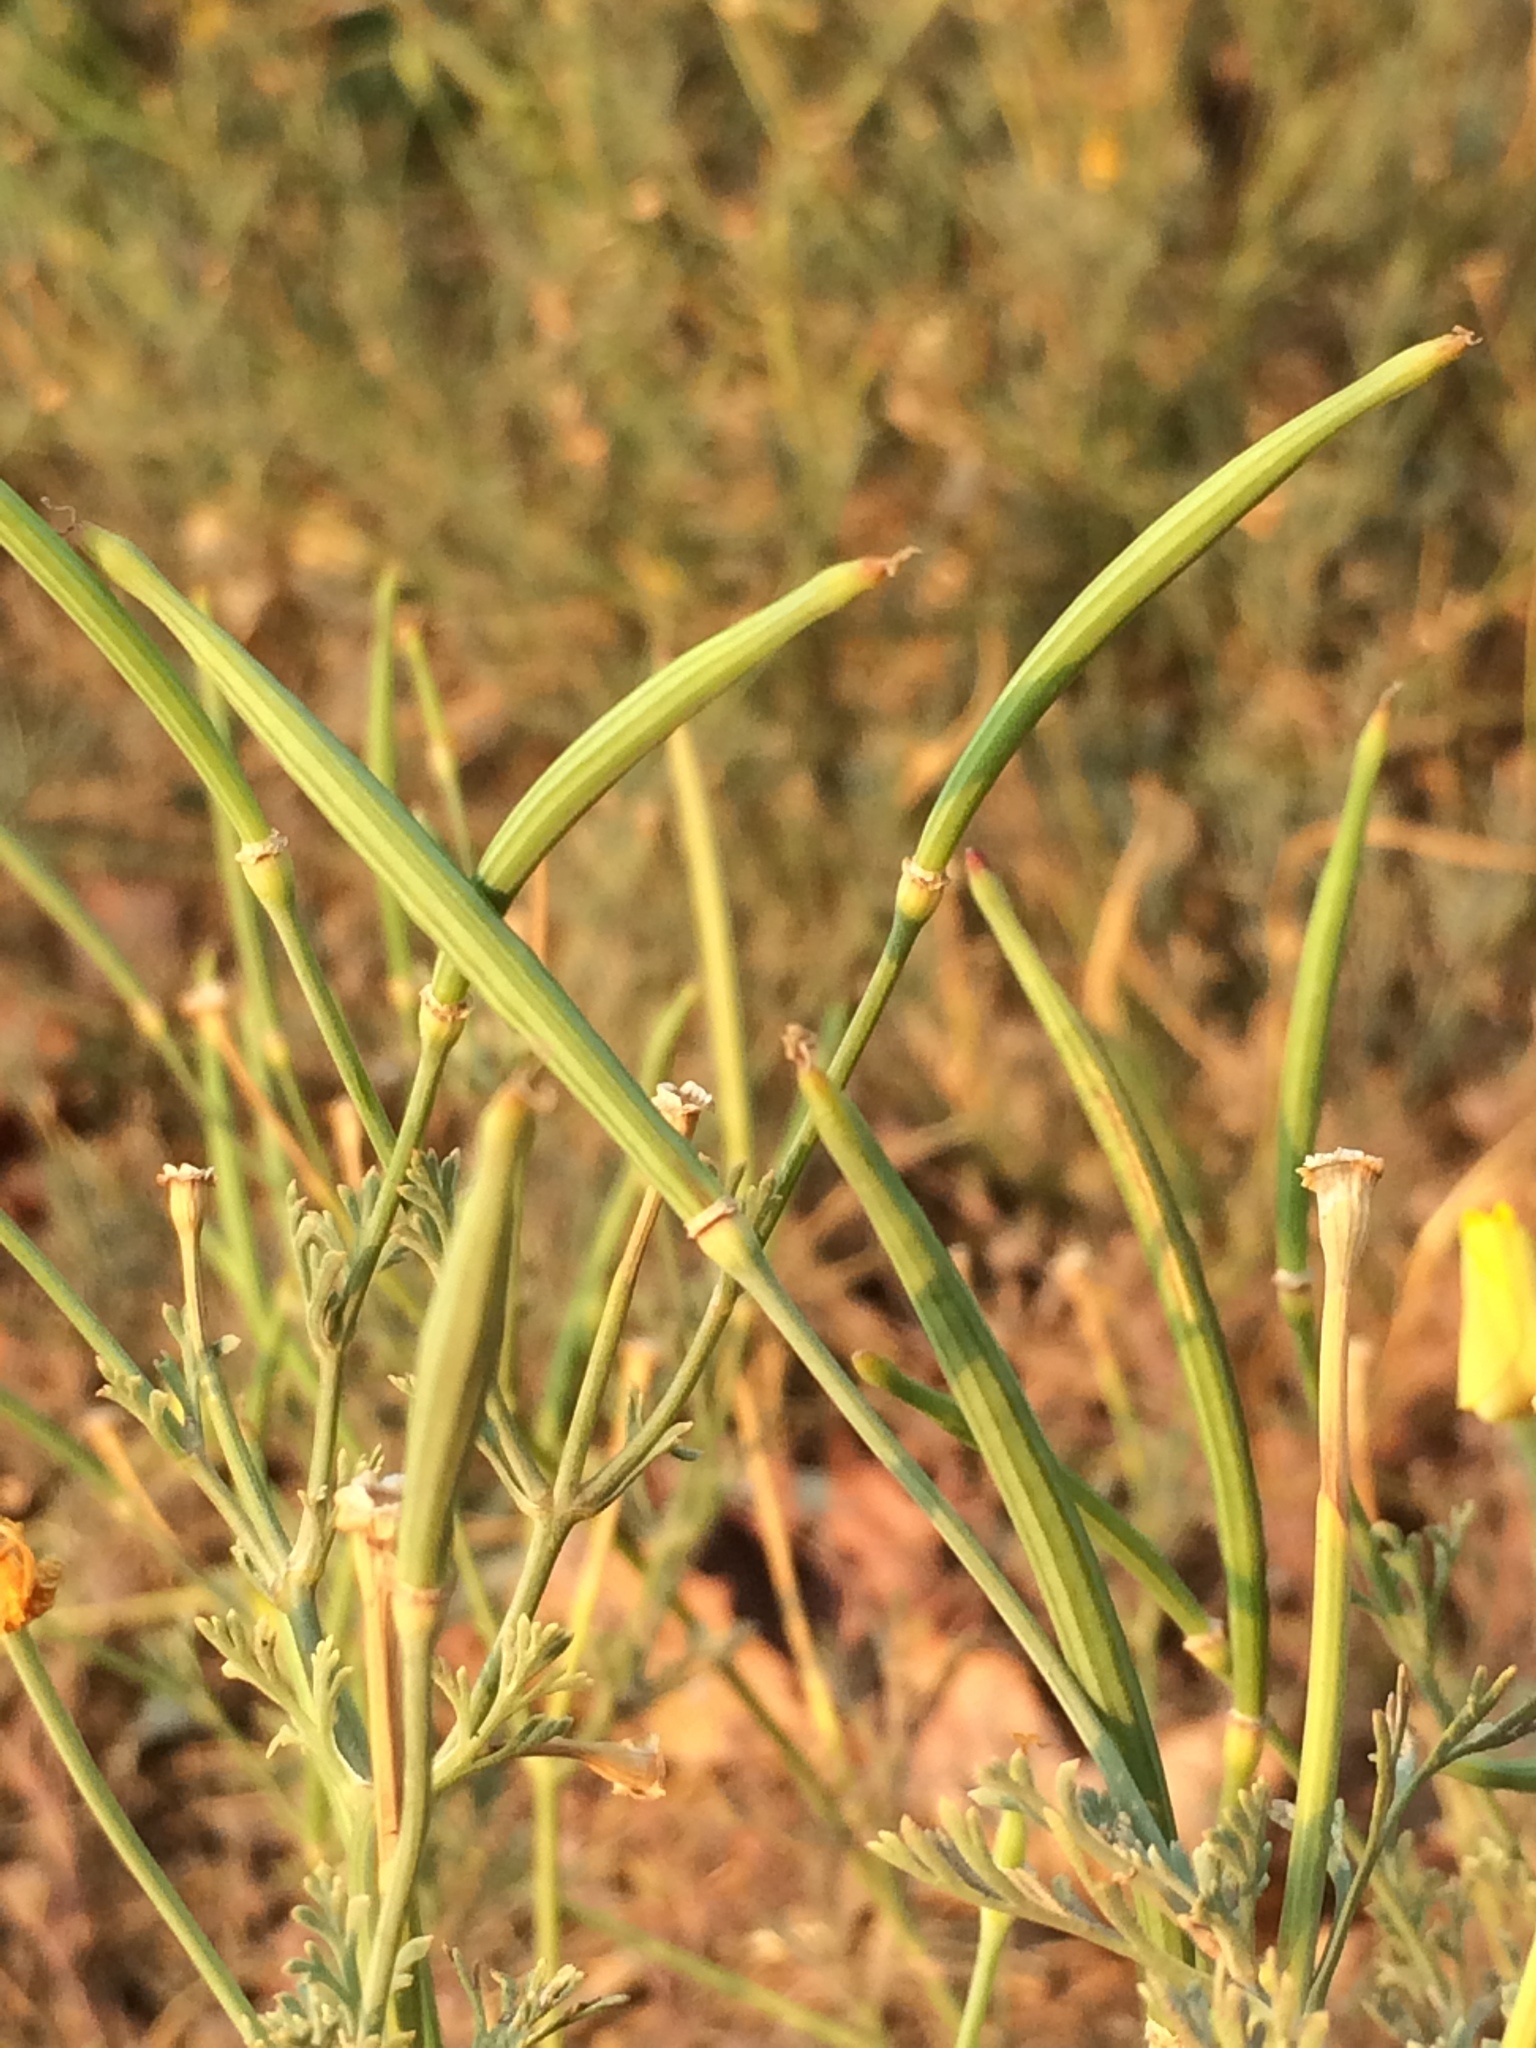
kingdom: Plantae
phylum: Tracheophyta
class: Magnoliopsida
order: Ranunculales
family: Papaveraceae
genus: Eschscholzia
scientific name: Eschscholzia californica
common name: California poppy
